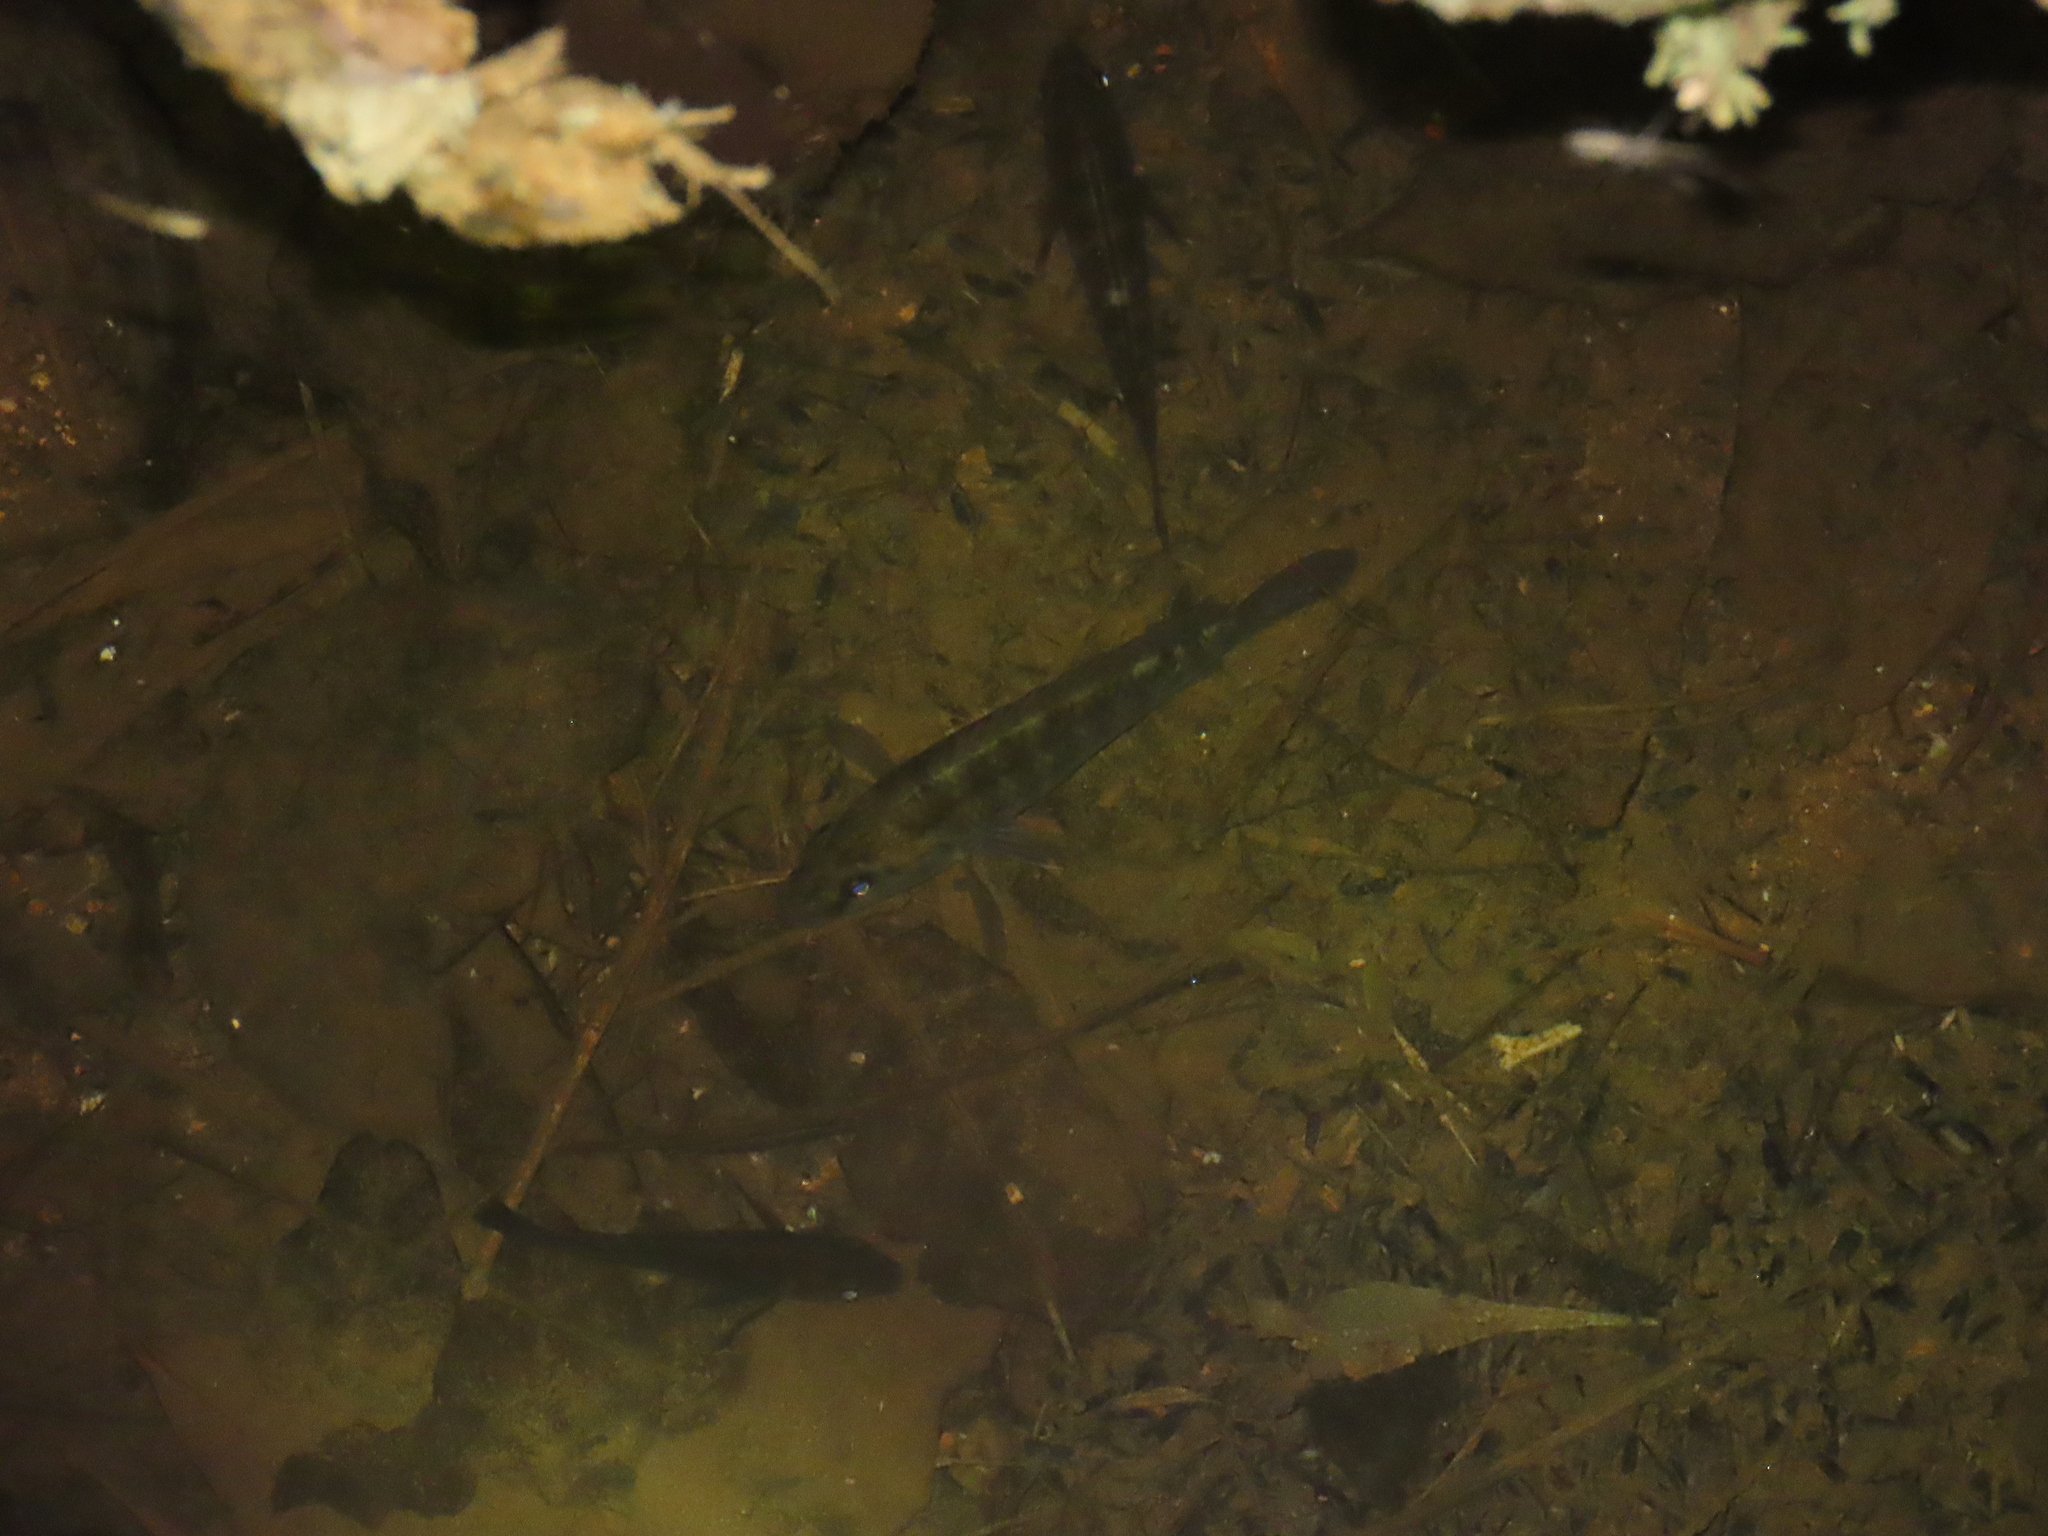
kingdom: Animalia
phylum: Chordata
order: Perciformes
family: Cichlidae
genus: Pseudocrenilabrus
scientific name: Pseudocrenilabrus philander
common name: Southern mouthbrooder
